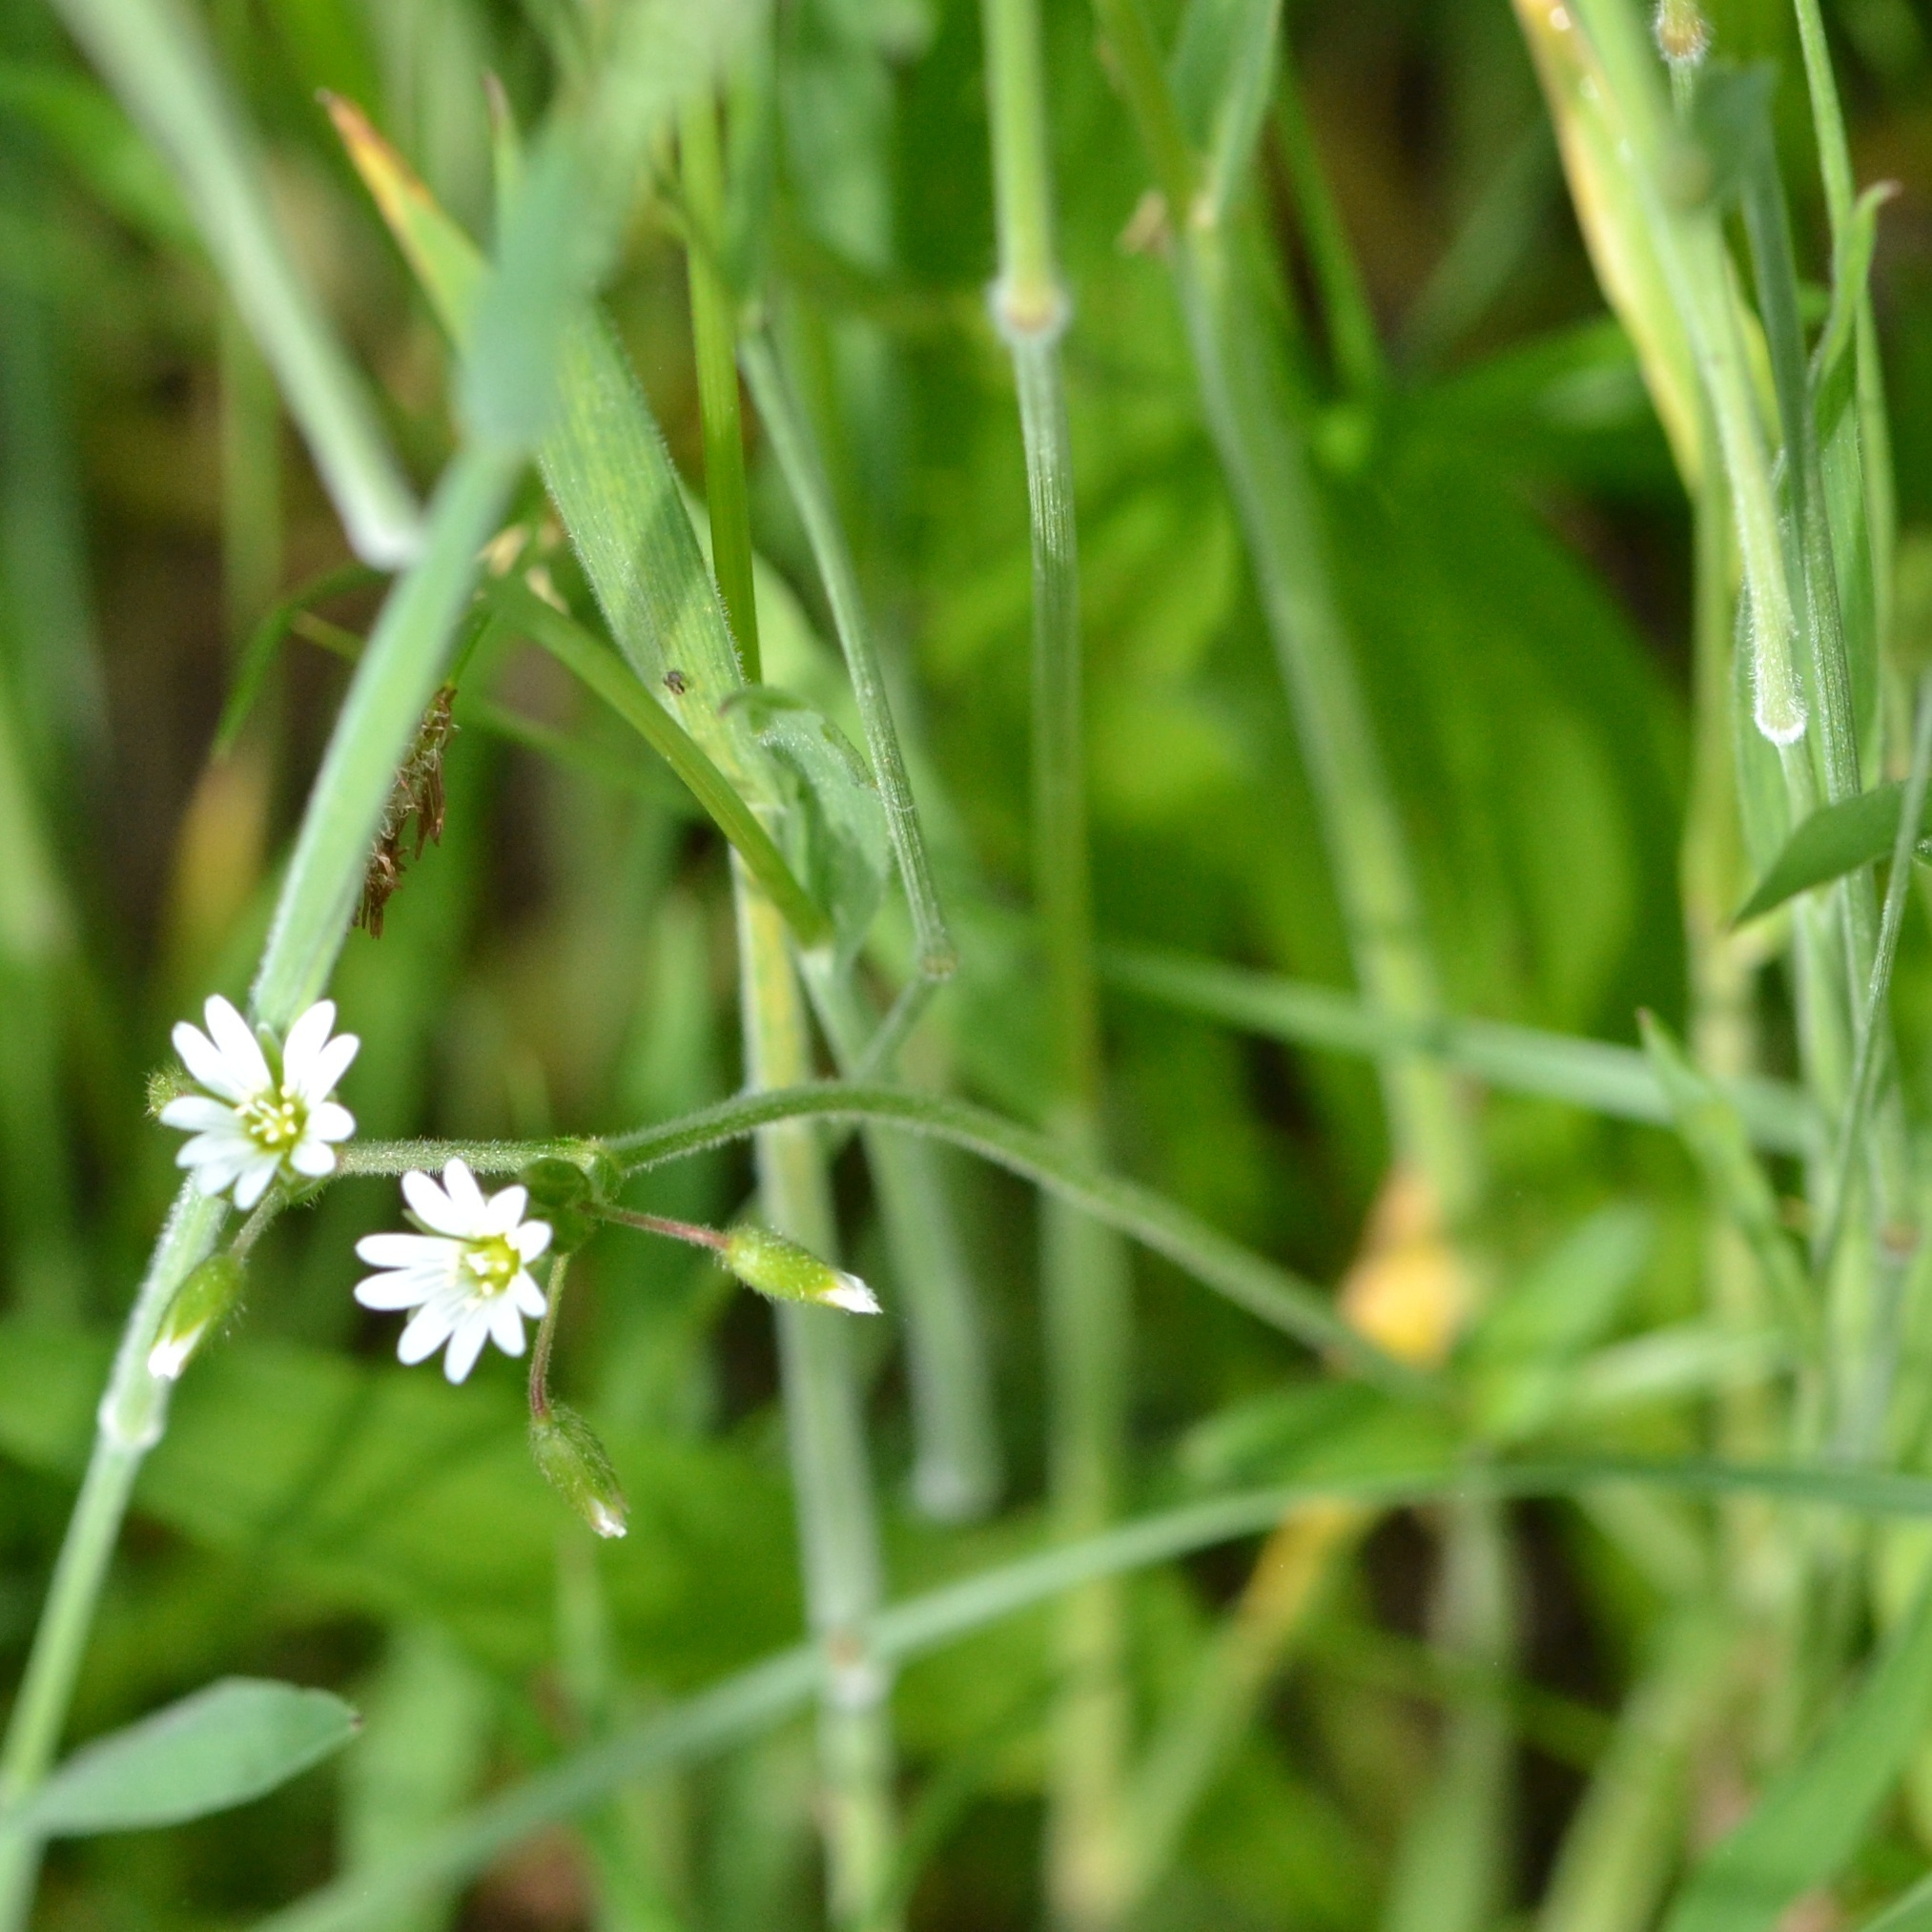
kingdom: Plantae
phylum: Tracheophyta
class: Magnoliopsida
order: Caryophyllales
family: Caryophyllaceae
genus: Cerastium
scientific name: Cerastium holosteoides
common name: Big chickweed
